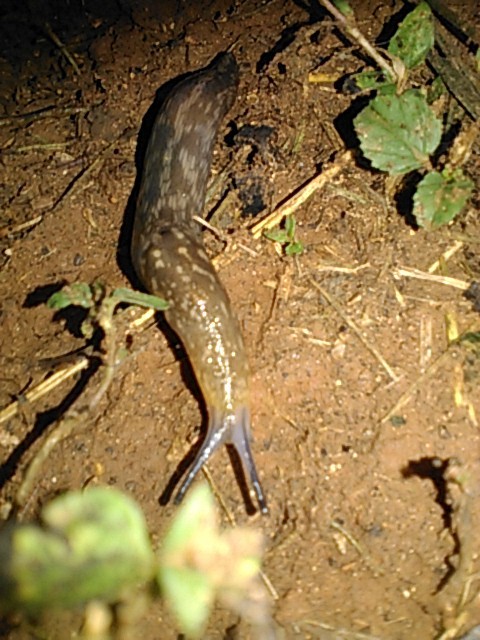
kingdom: Animalia
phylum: Mollusca
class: Gastropoda
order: Stylommatophora
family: Limacidae
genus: Limacus
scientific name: Limacus flavus
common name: Yellow gardenslug
